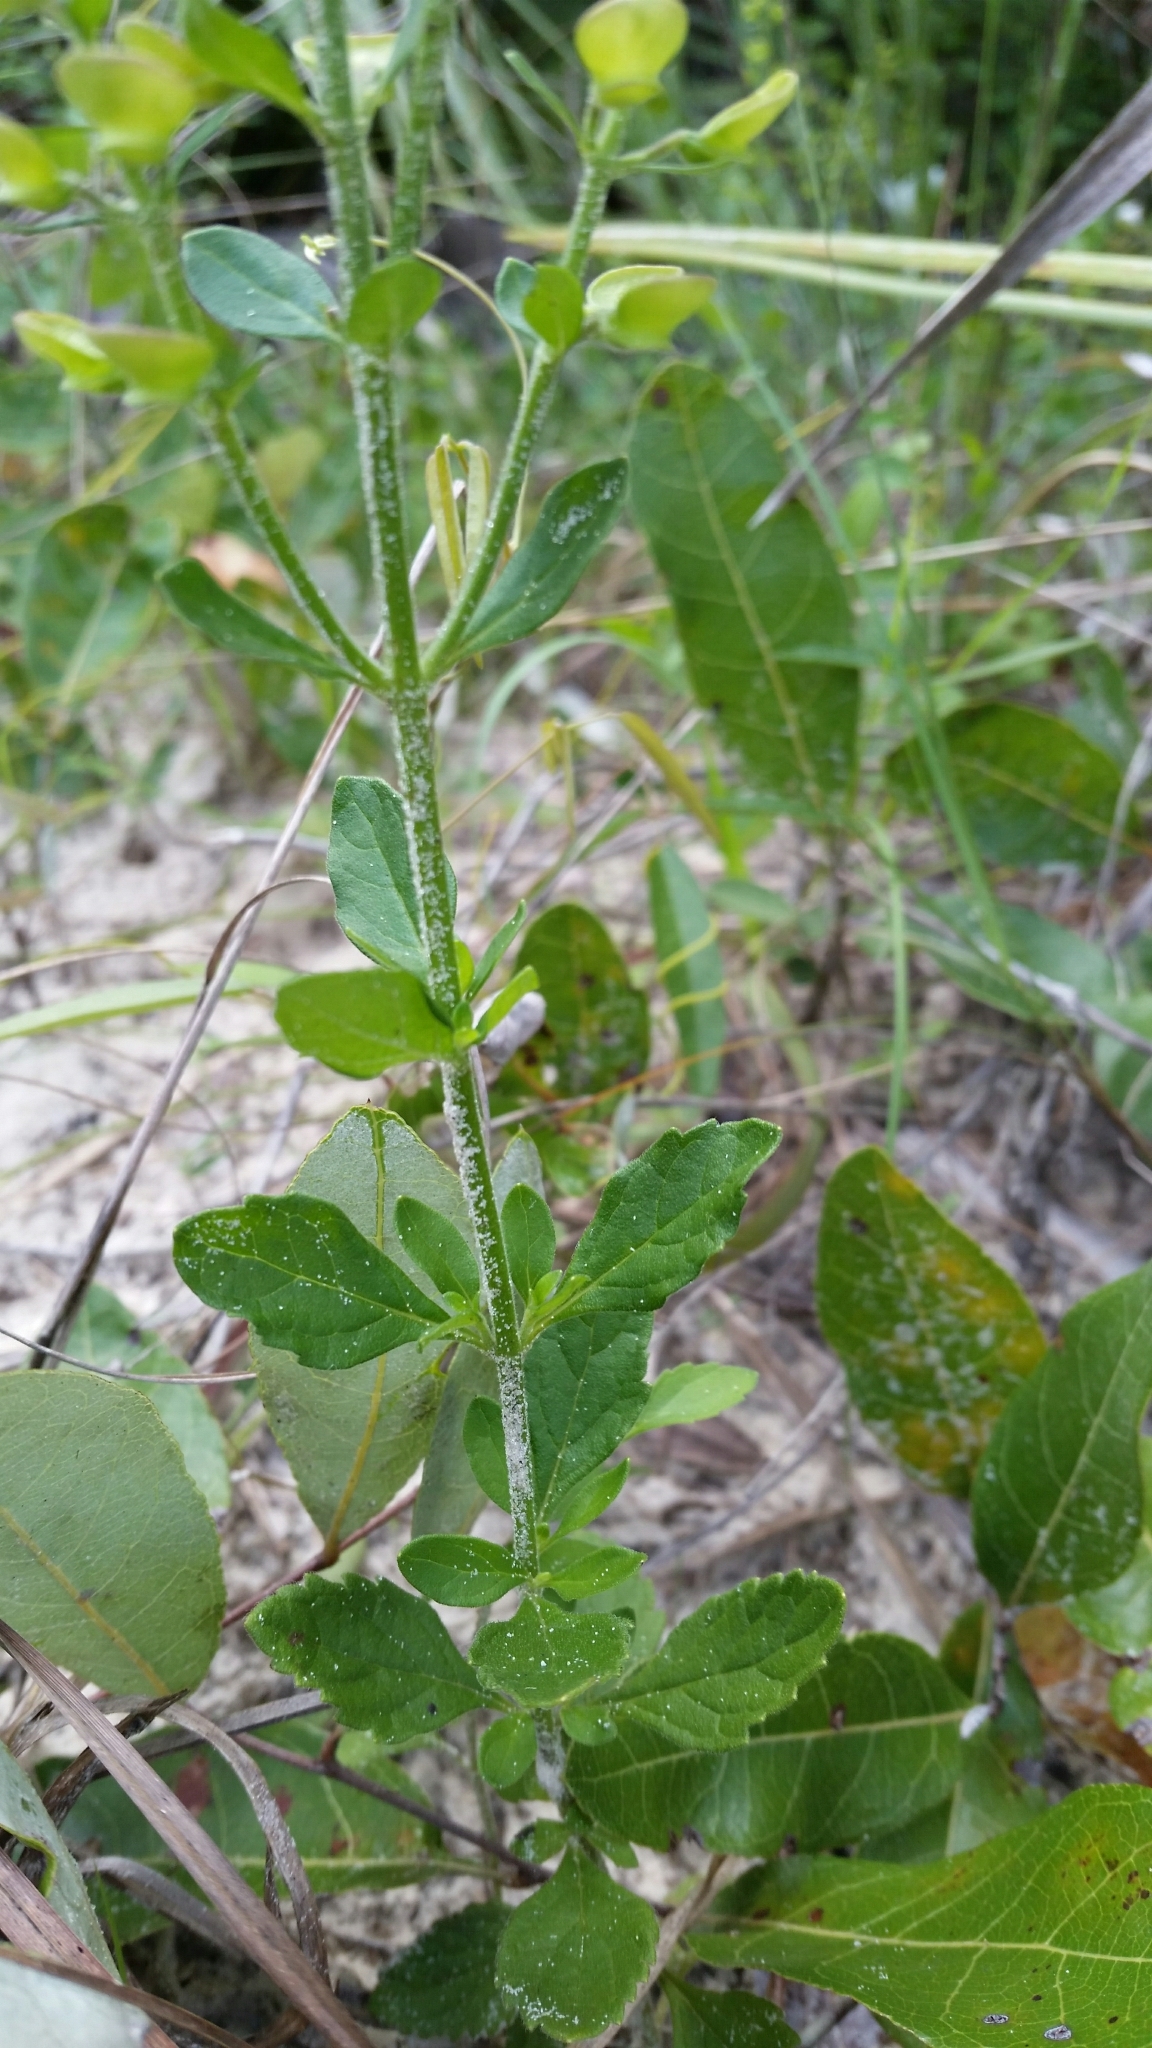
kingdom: Plantae
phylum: Tracheophyta
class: Magnoliopsida
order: Lamiales
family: Lamiaceae
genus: Scutellaria
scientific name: Scutellaria arenicola
